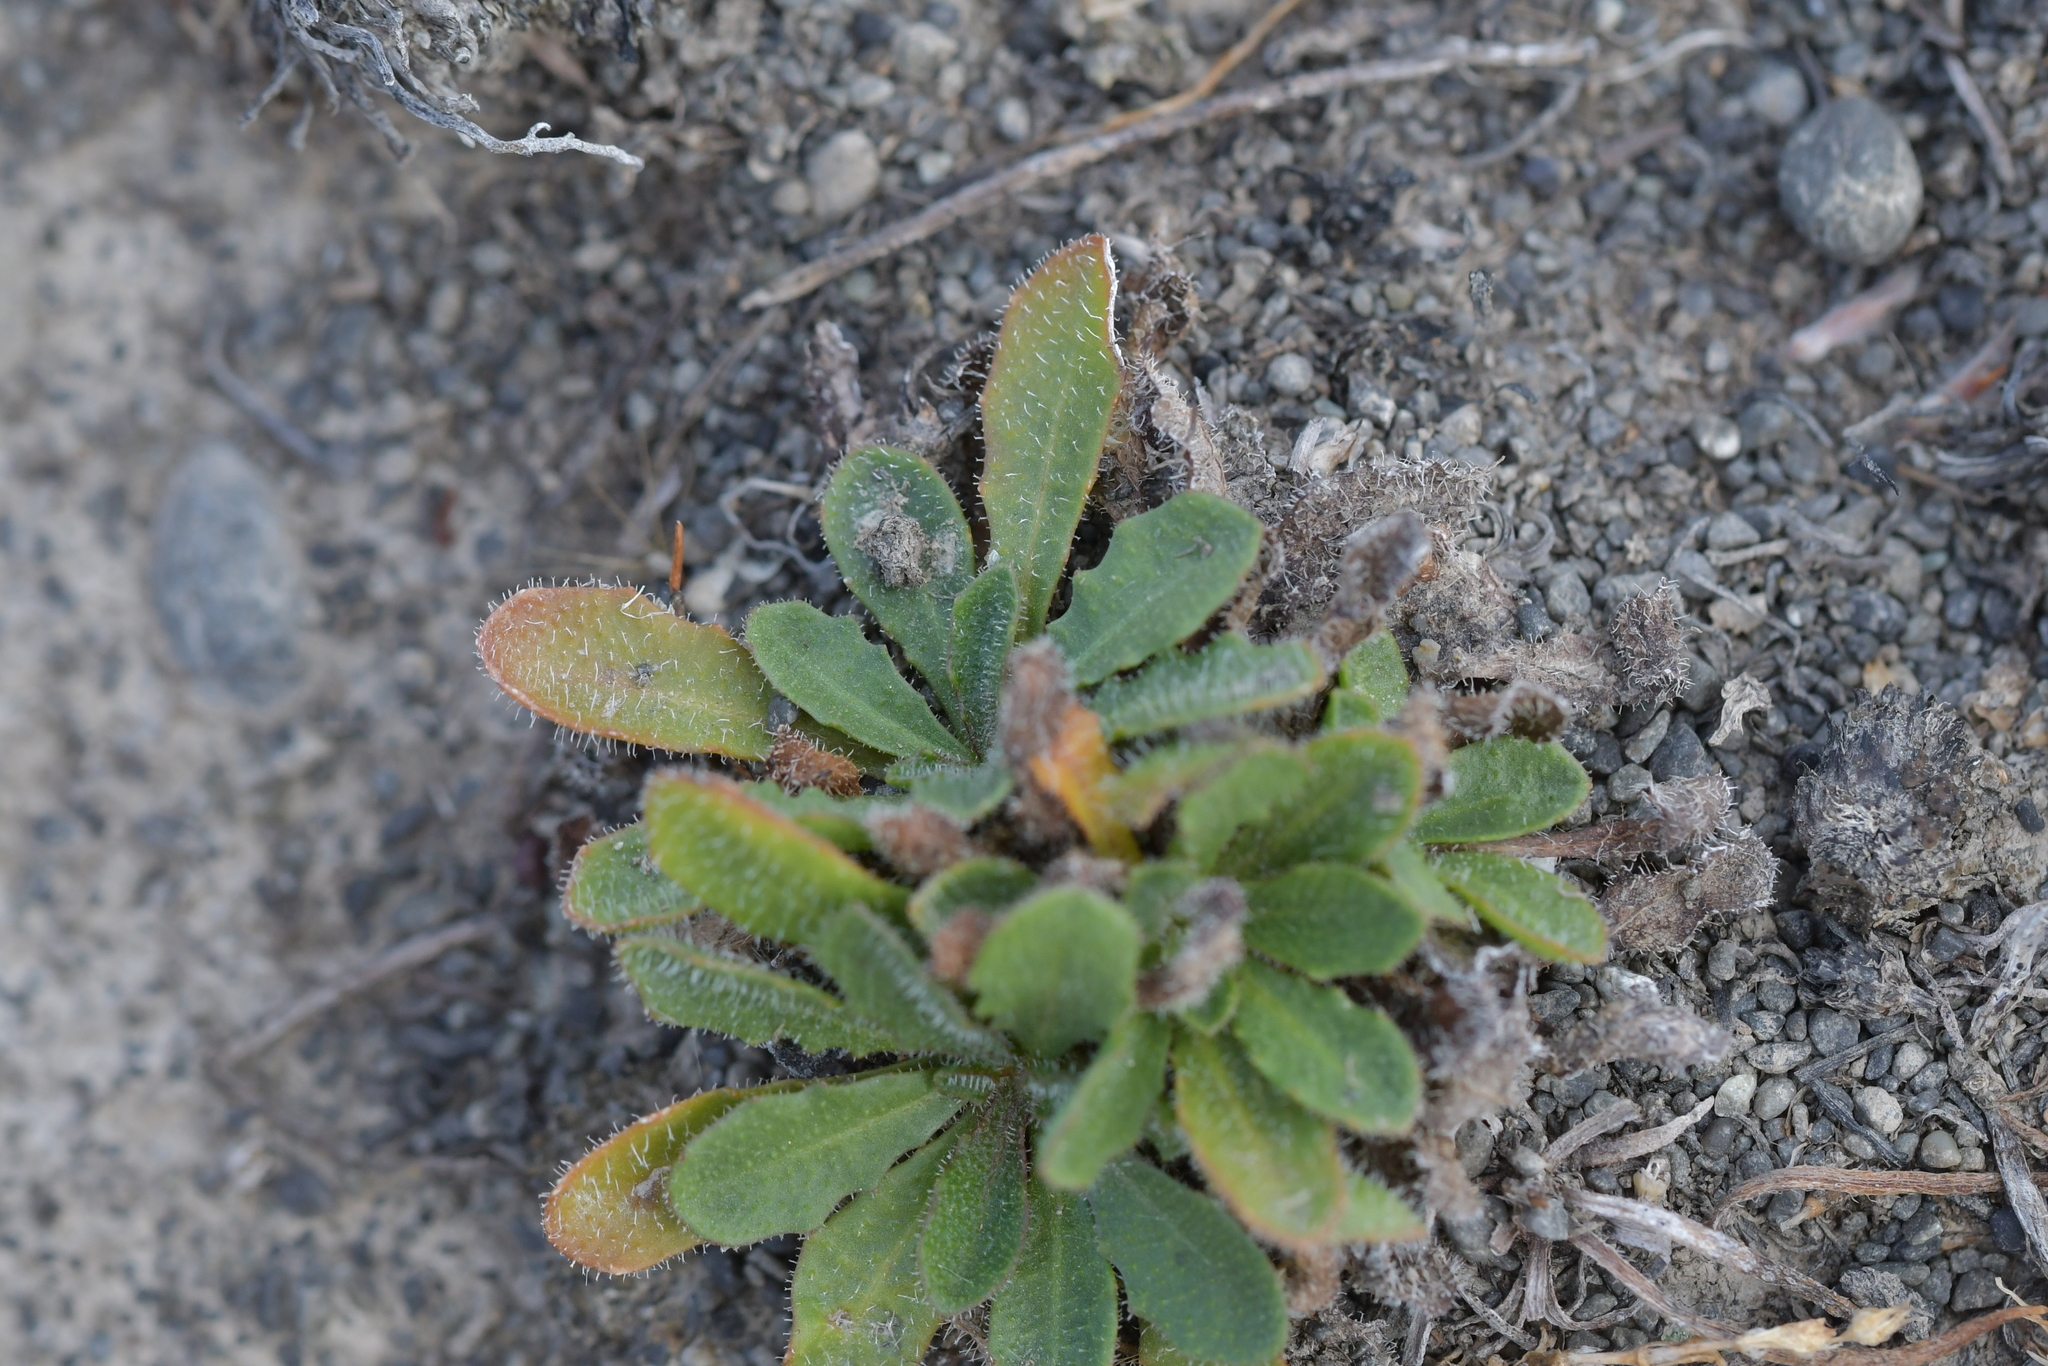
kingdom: Plantae
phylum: Tracheophyta
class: Magnoliopsida
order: Asterales
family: Asteraceae
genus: Hypochaeris
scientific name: Hypochaeris radicata
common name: Flatweed
